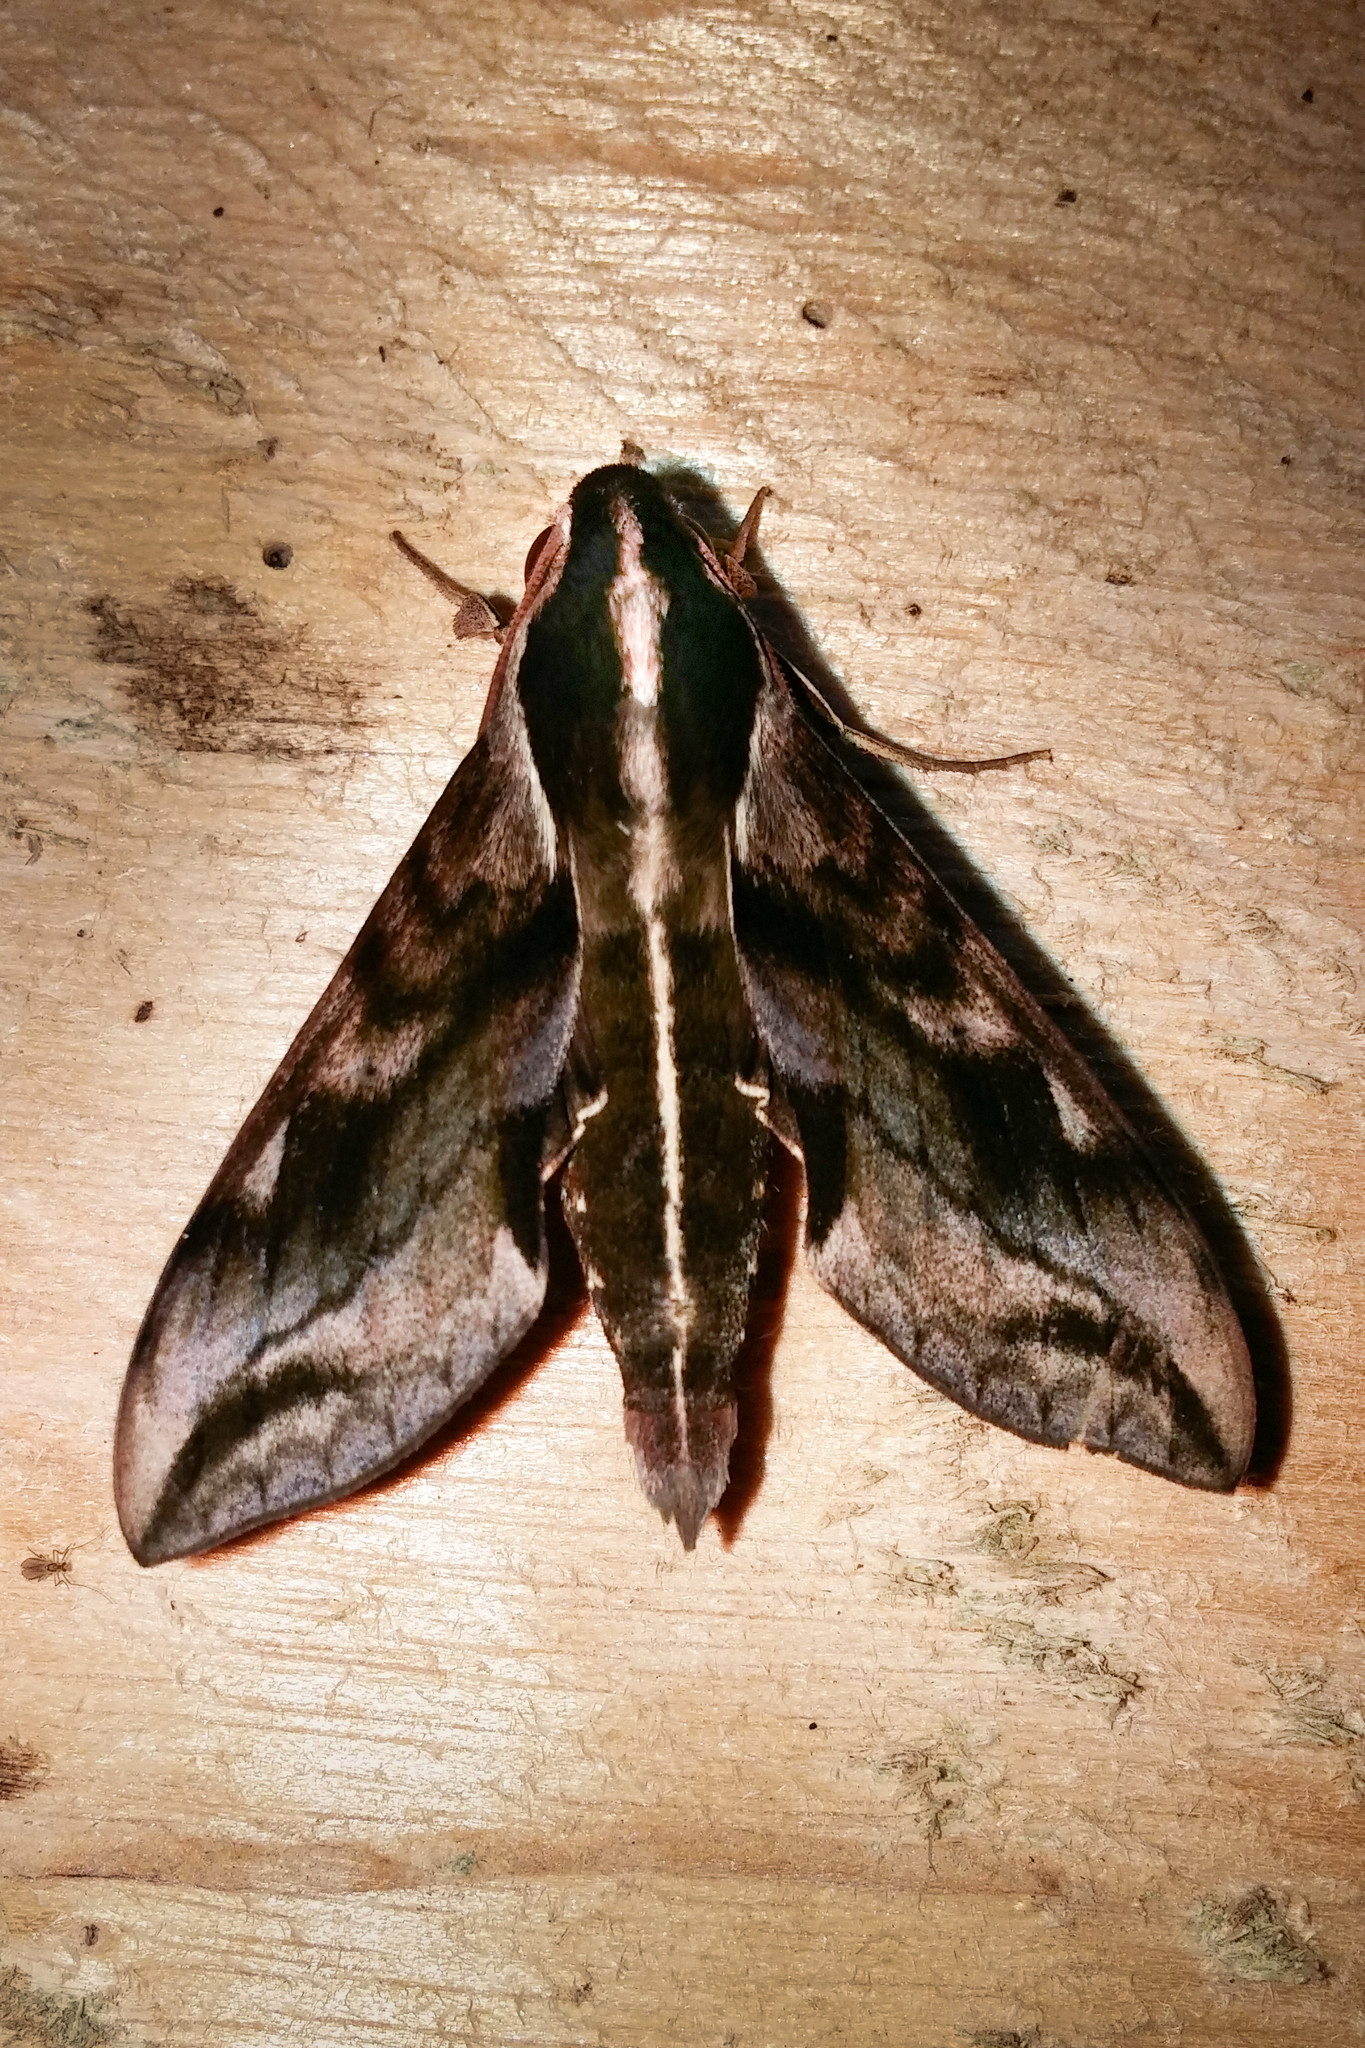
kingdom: Animalia
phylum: Arthropoda
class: Insecta
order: Lepidoptera
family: Sphingidae
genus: Hippotion
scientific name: Hippotion brunnea
